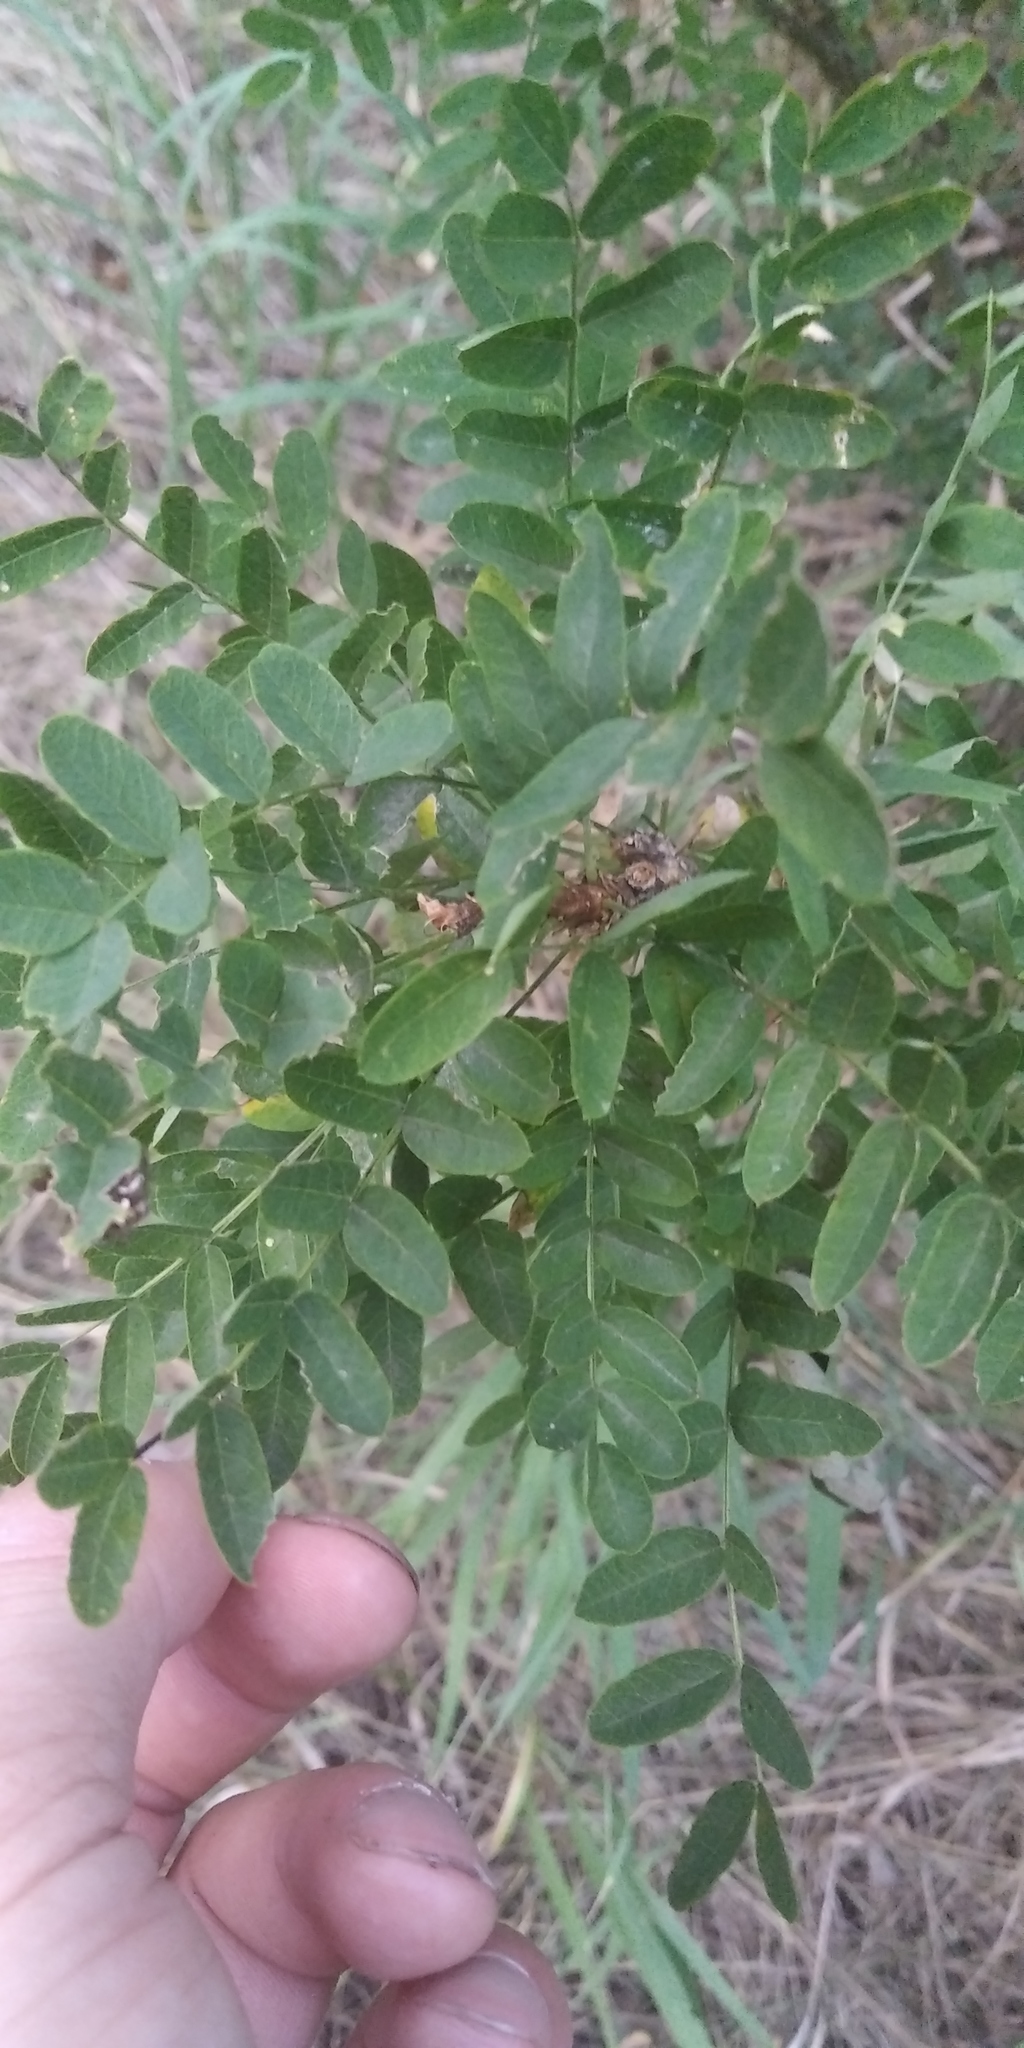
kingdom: Plantae
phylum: Tracheophyta
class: Magnoliopsida
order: Fabales
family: Fabaceae
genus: Caragana
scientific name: Caragana arborescens
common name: Siberian peashrub
